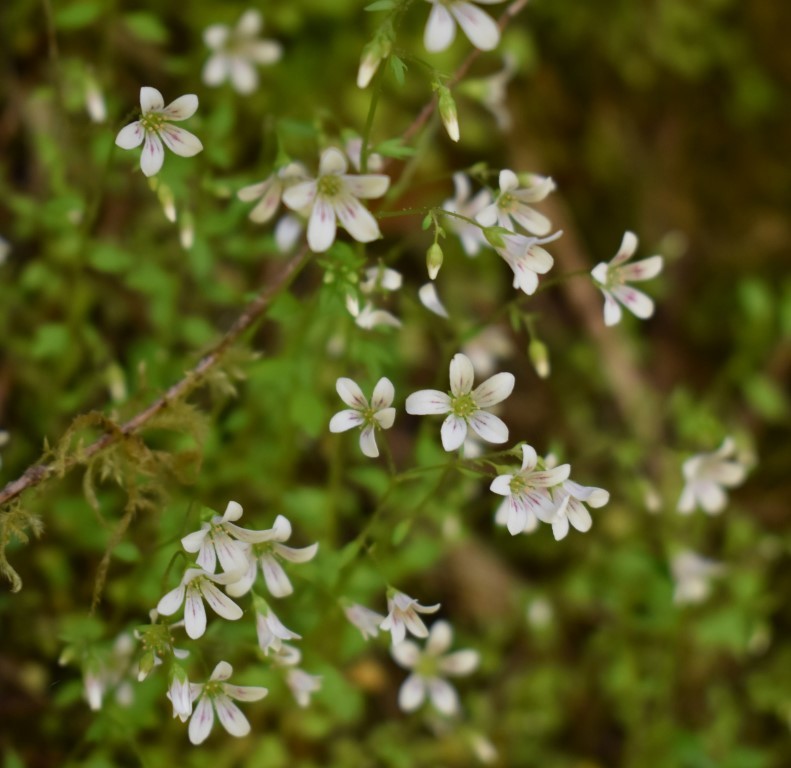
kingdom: Plantae
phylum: Tracheophyta
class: Magnoliopsida
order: Saxifragales
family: Saxifragaceae
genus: Cascadia
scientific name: Cascadia nuttallii
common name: Nuttall's saxifrage
